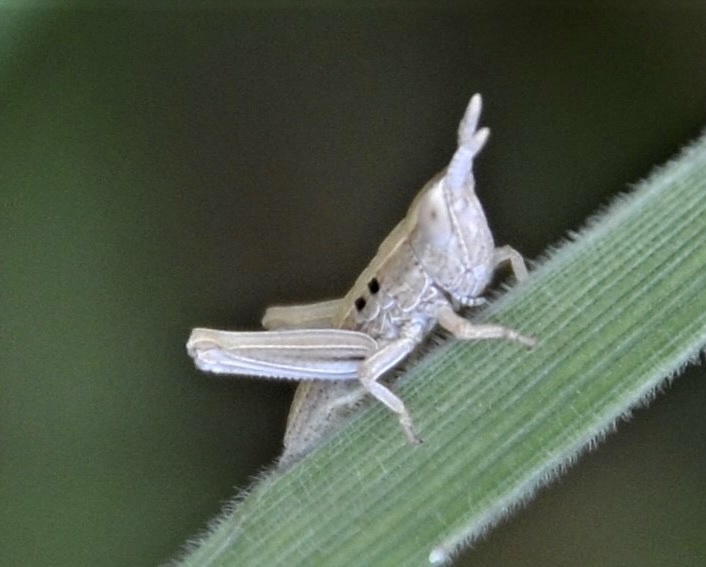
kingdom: Animalia
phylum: Arthropoda
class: Insecta
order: Orthoptera
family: Acrididae
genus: Euthystira
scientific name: Euthystira brachyptera
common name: Small gold grasshopper
